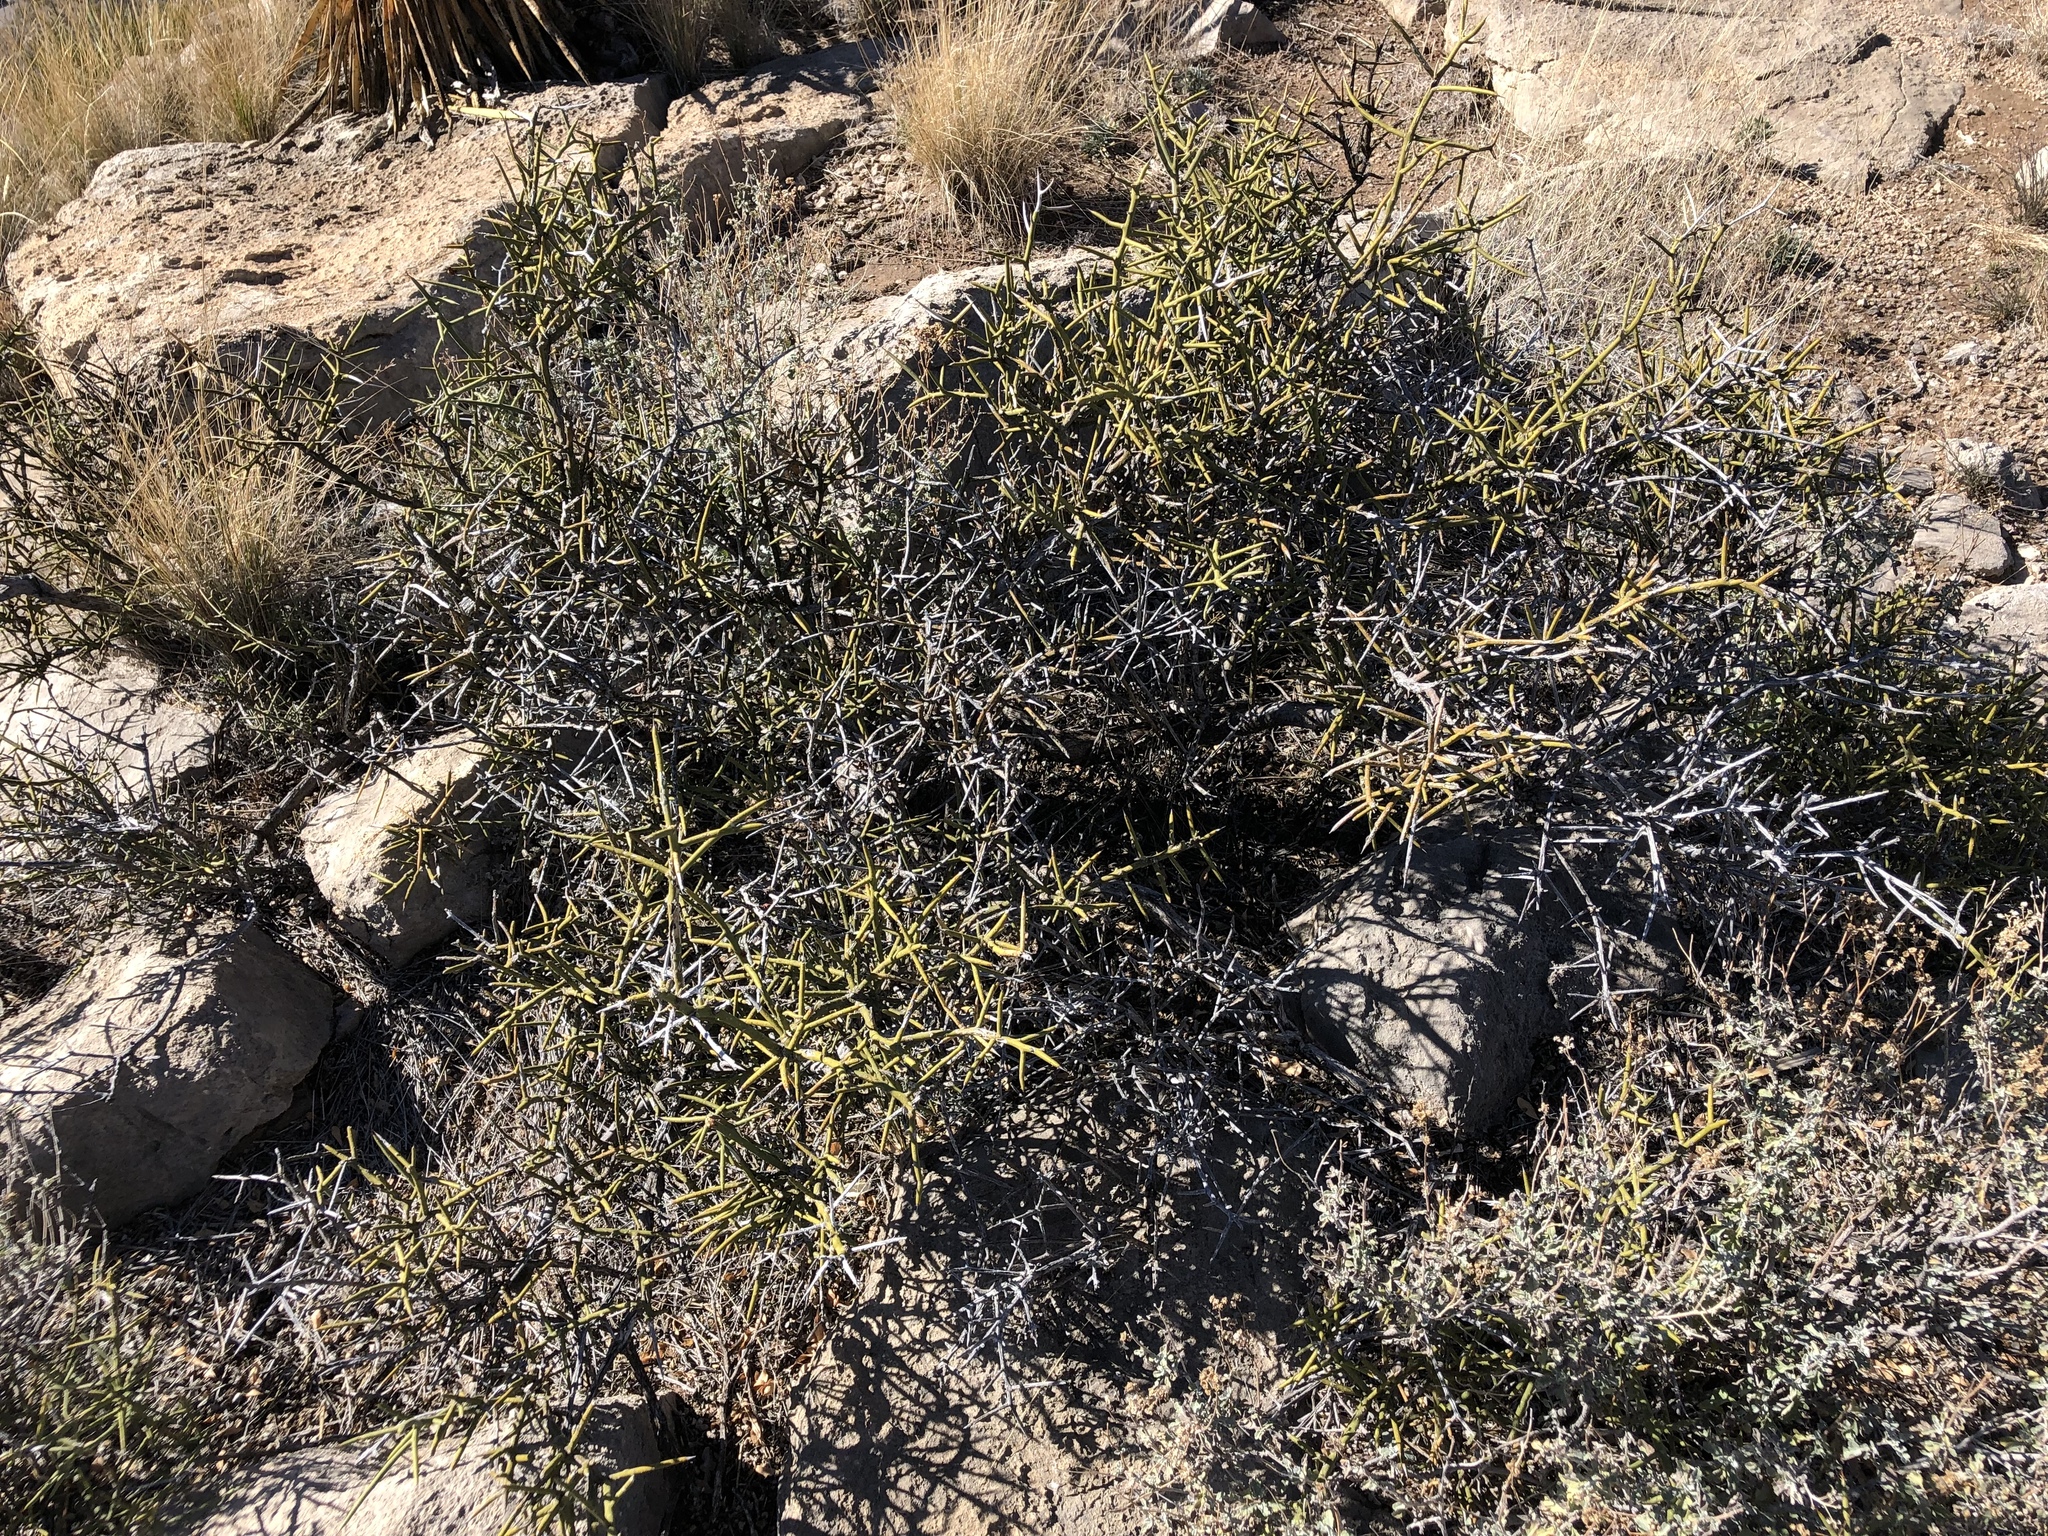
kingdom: Plantae
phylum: Tracheophyta
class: Magnoliopsida
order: Brassicales
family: Koeberliniaceae
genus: Koeberlinia
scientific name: Koeberlinia spinosa
